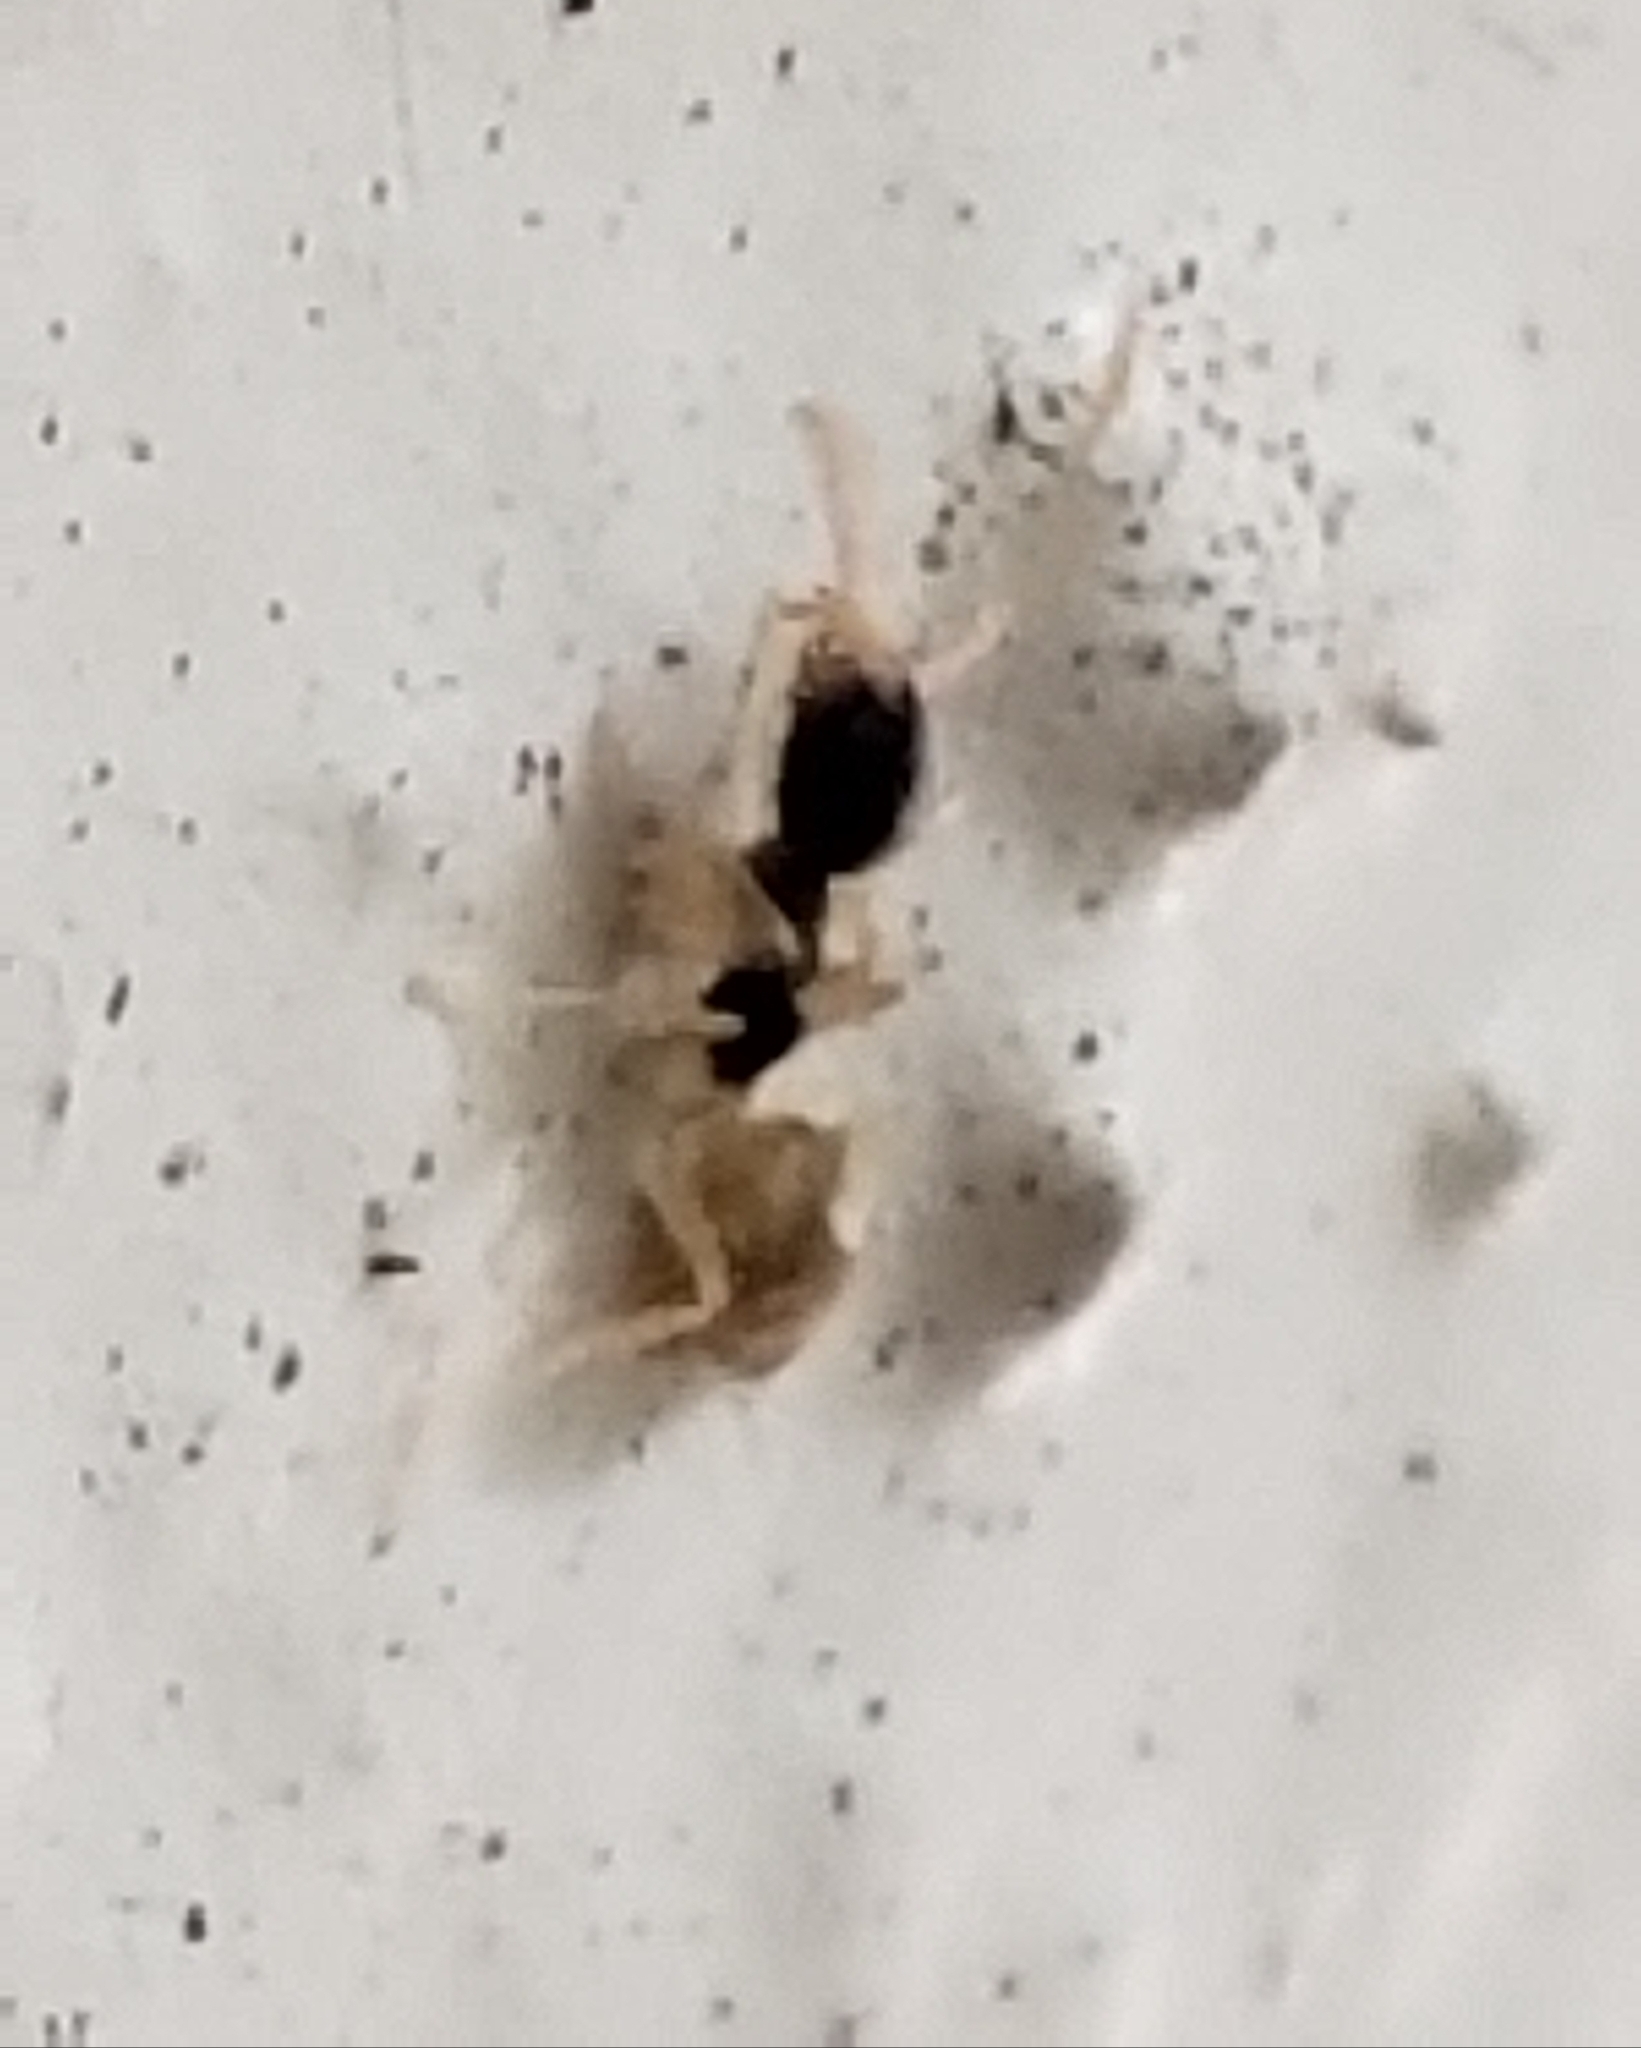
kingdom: Animalia
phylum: Arthropoda
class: Insecta
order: Hymenoptera
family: Formicidae
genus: Tapinoma
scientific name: Tapinoma melanocephalum
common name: Ghost ant
